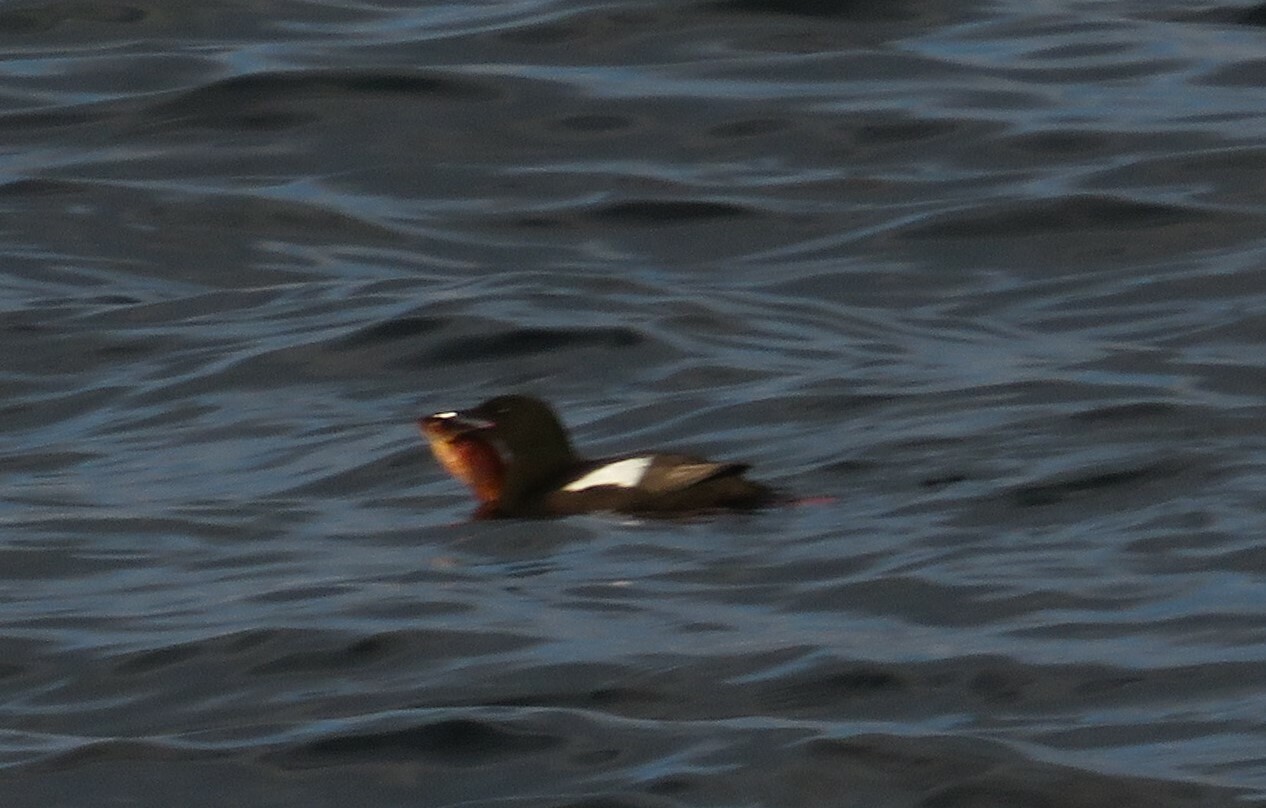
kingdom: Animalia
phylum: Chordata
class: Aves
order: Charadriiformes
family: Alcidae
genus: Cepphus
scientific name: Cepphus grylle
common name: Black guillemot
